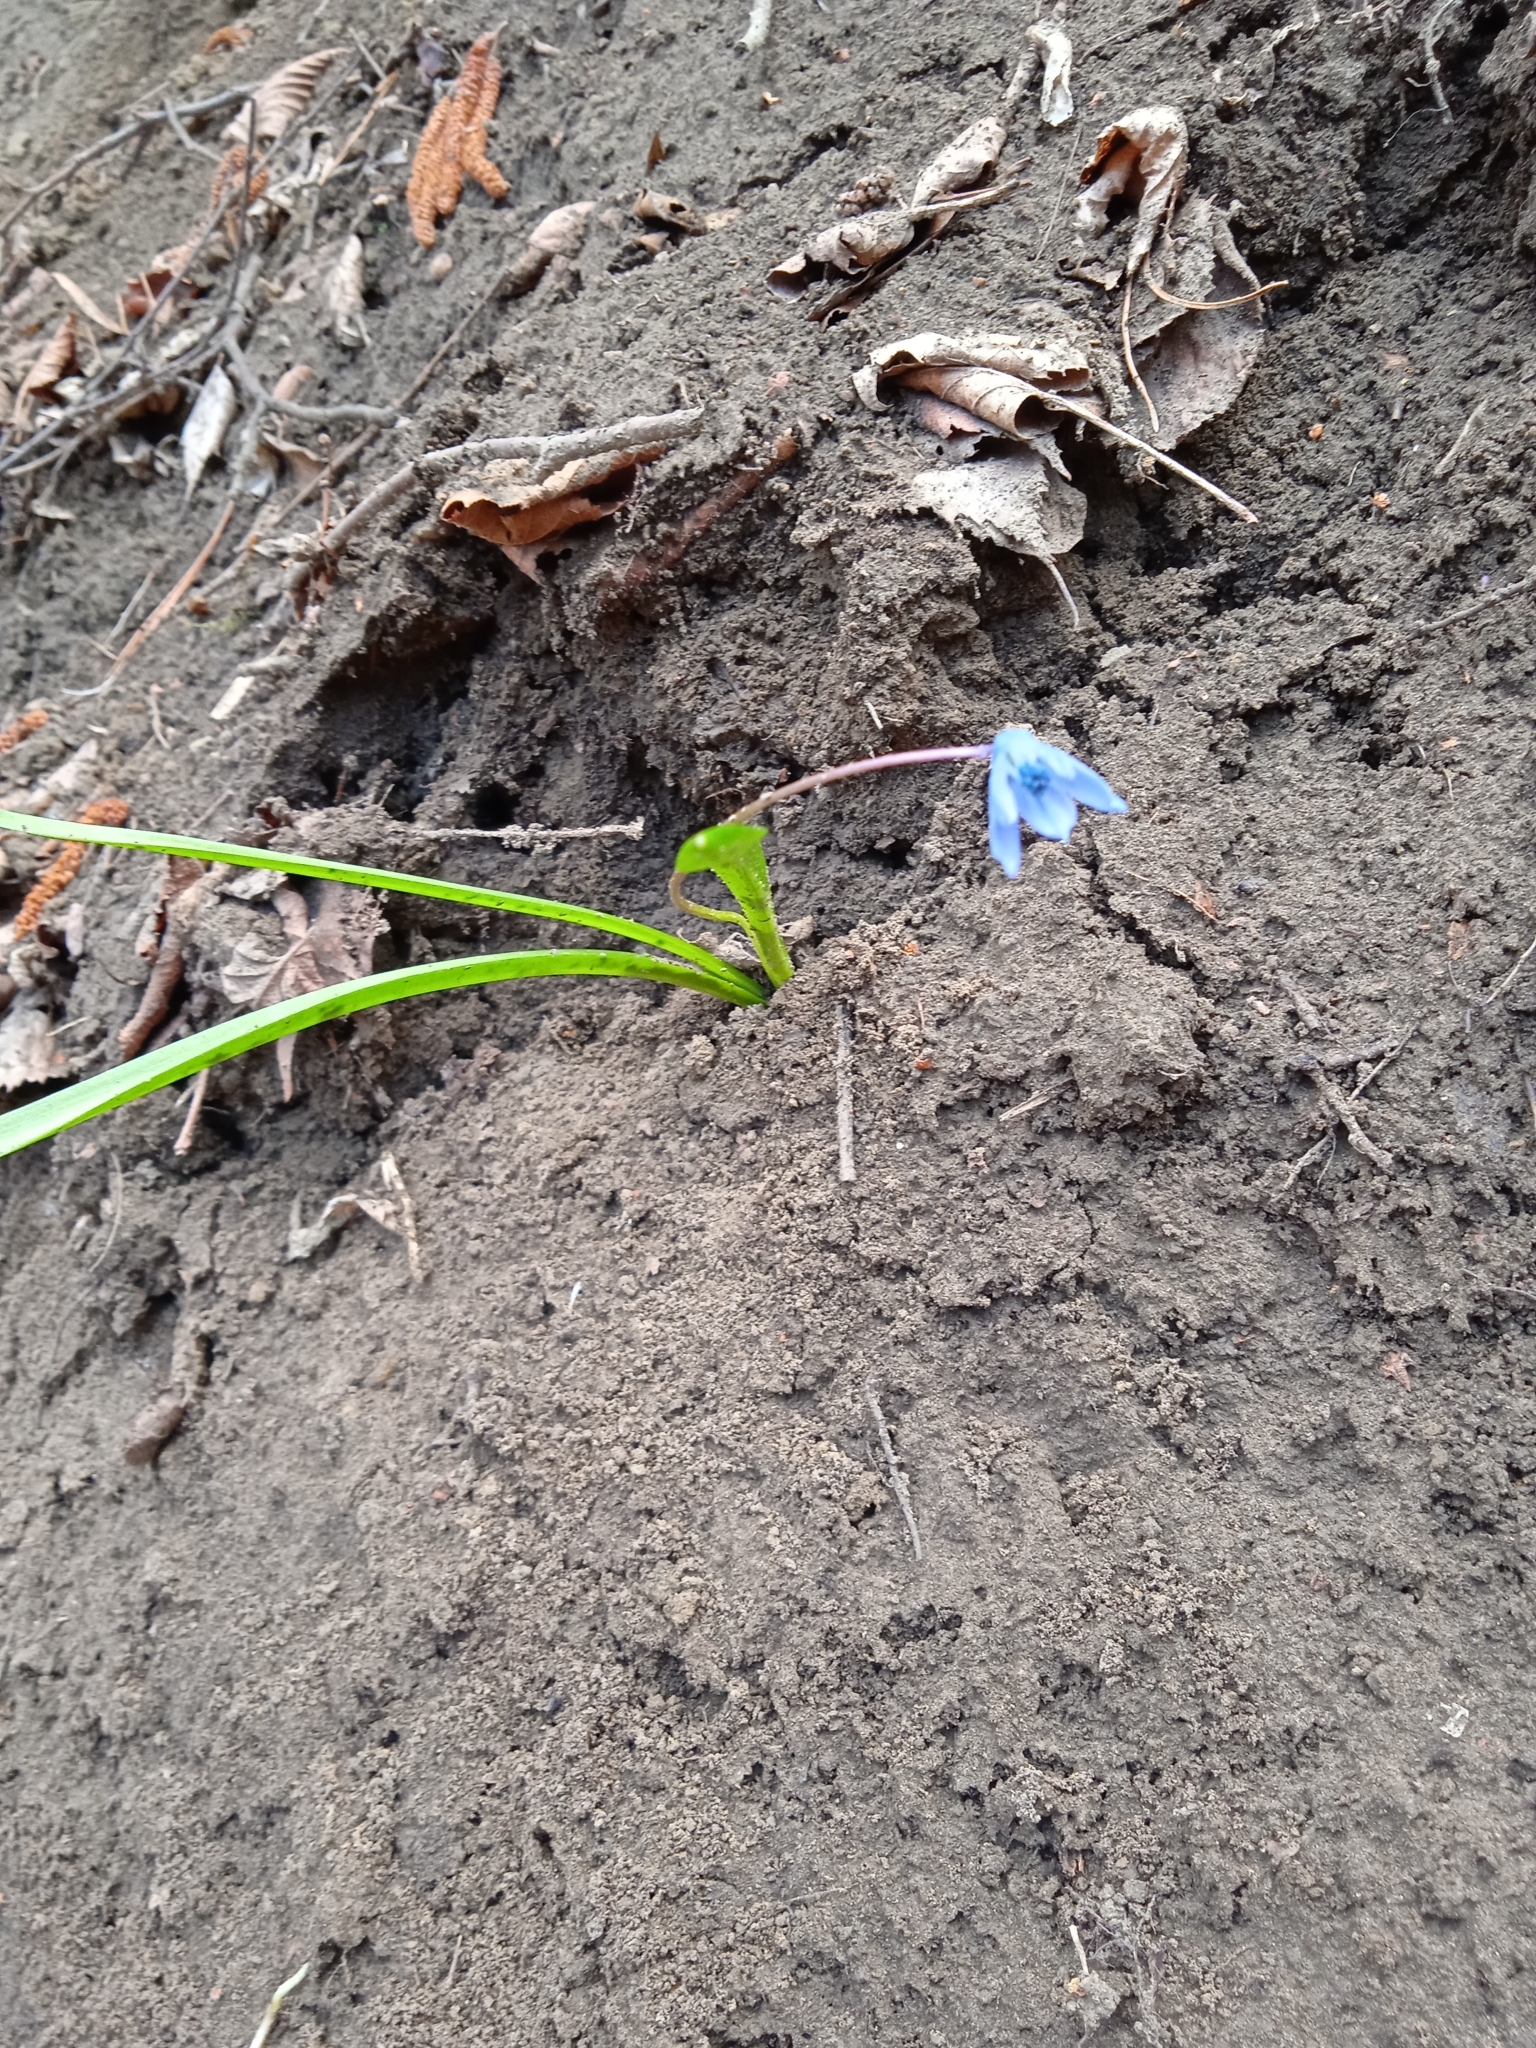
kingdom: Plantae
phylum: Tracheophyta
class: Liliopsida
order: Asparagales
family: Asparagaceae
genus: Scilla
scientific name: Scilla siberica
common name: Siberian squill
